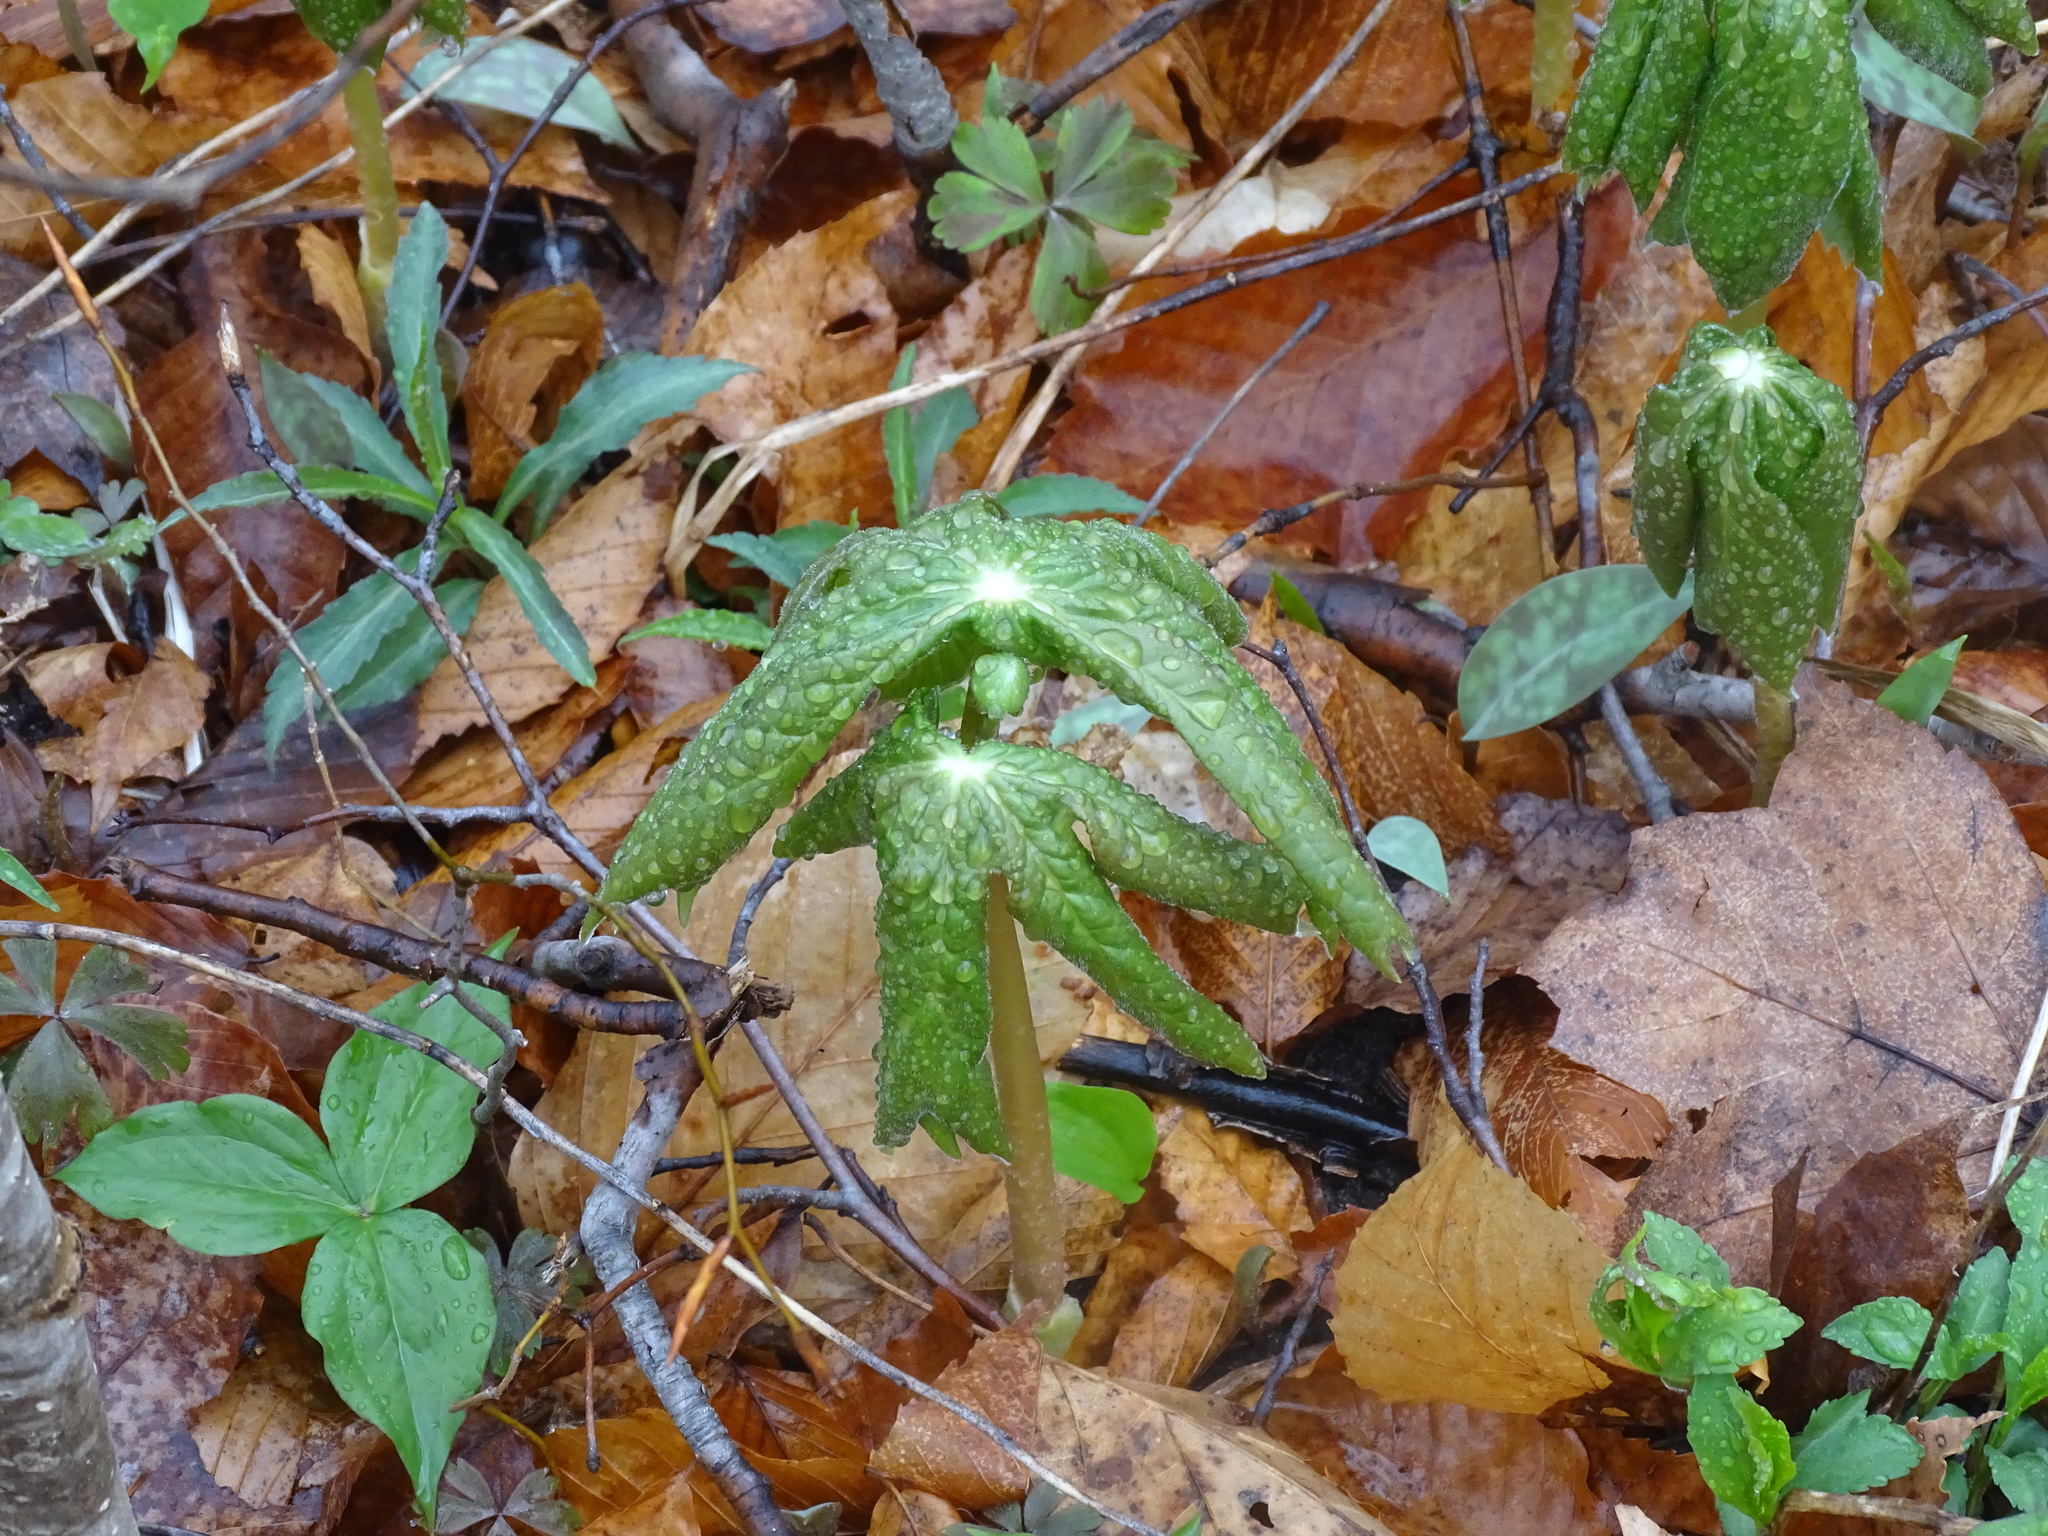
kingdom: Plantae
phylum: Tracheophyta
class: Magnoliopsida
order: Ranunculales
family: Berberidaceae
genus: Podophyllum
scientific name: Podophyllum peltatum
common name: Wild mandrake
